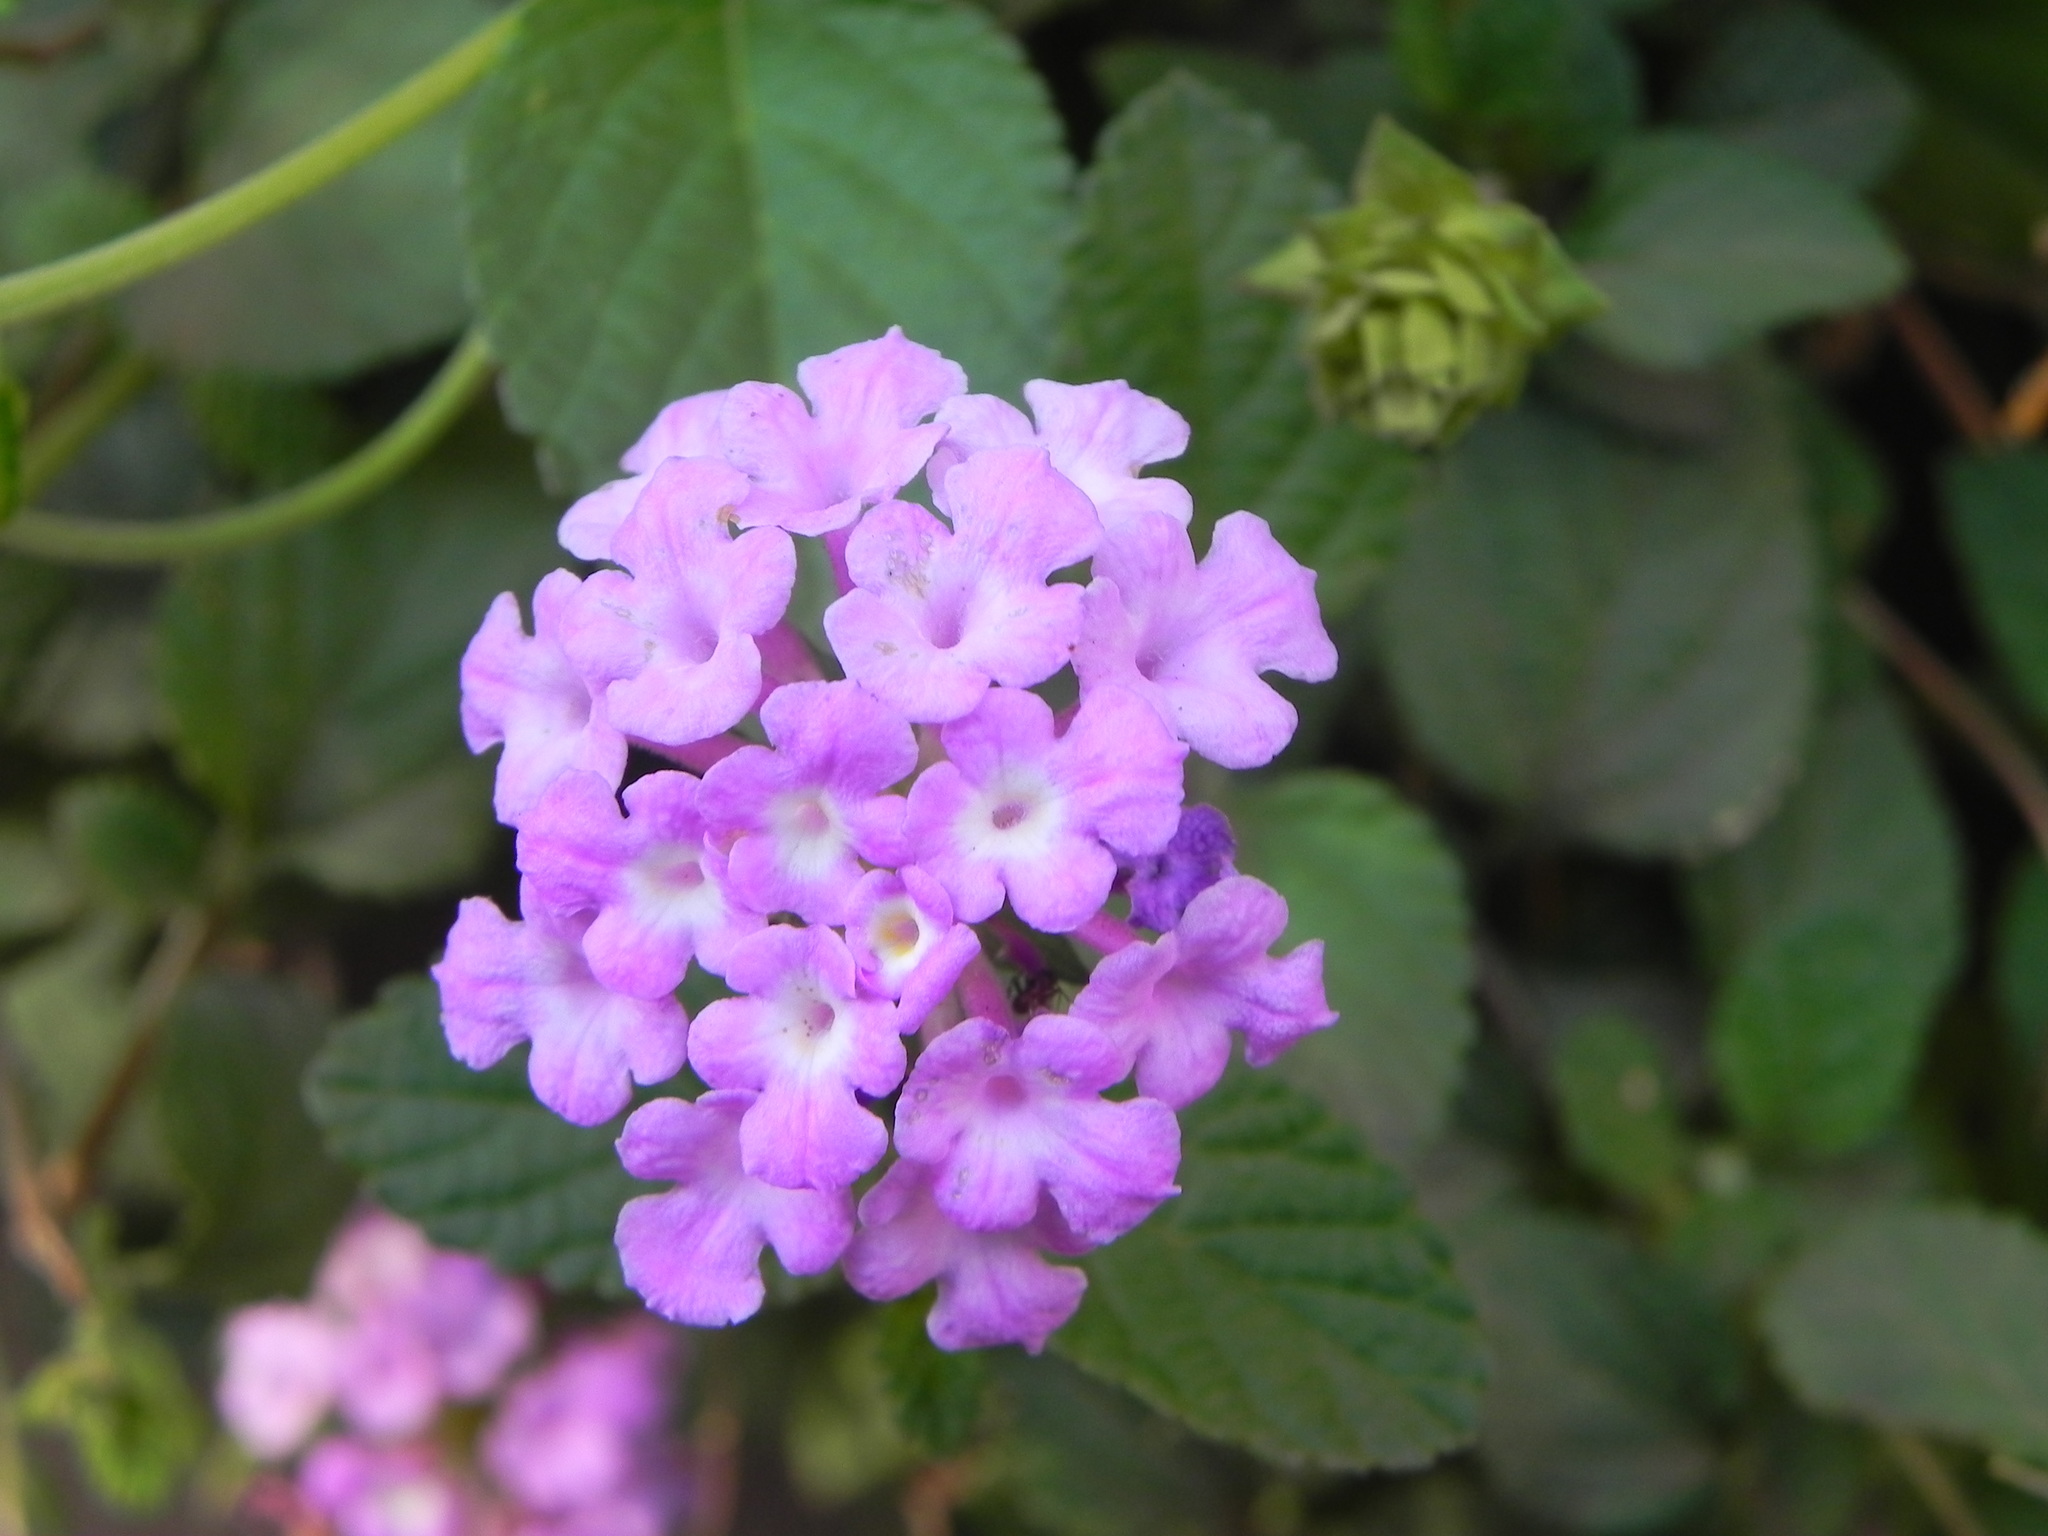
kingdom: Plantae
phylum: Tracheophyta
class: Magnoliopsida
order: Lamiales
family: Verbenaceae
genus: Lantana
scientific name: Lantana montevidensis
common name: Trailing shrubverbena
